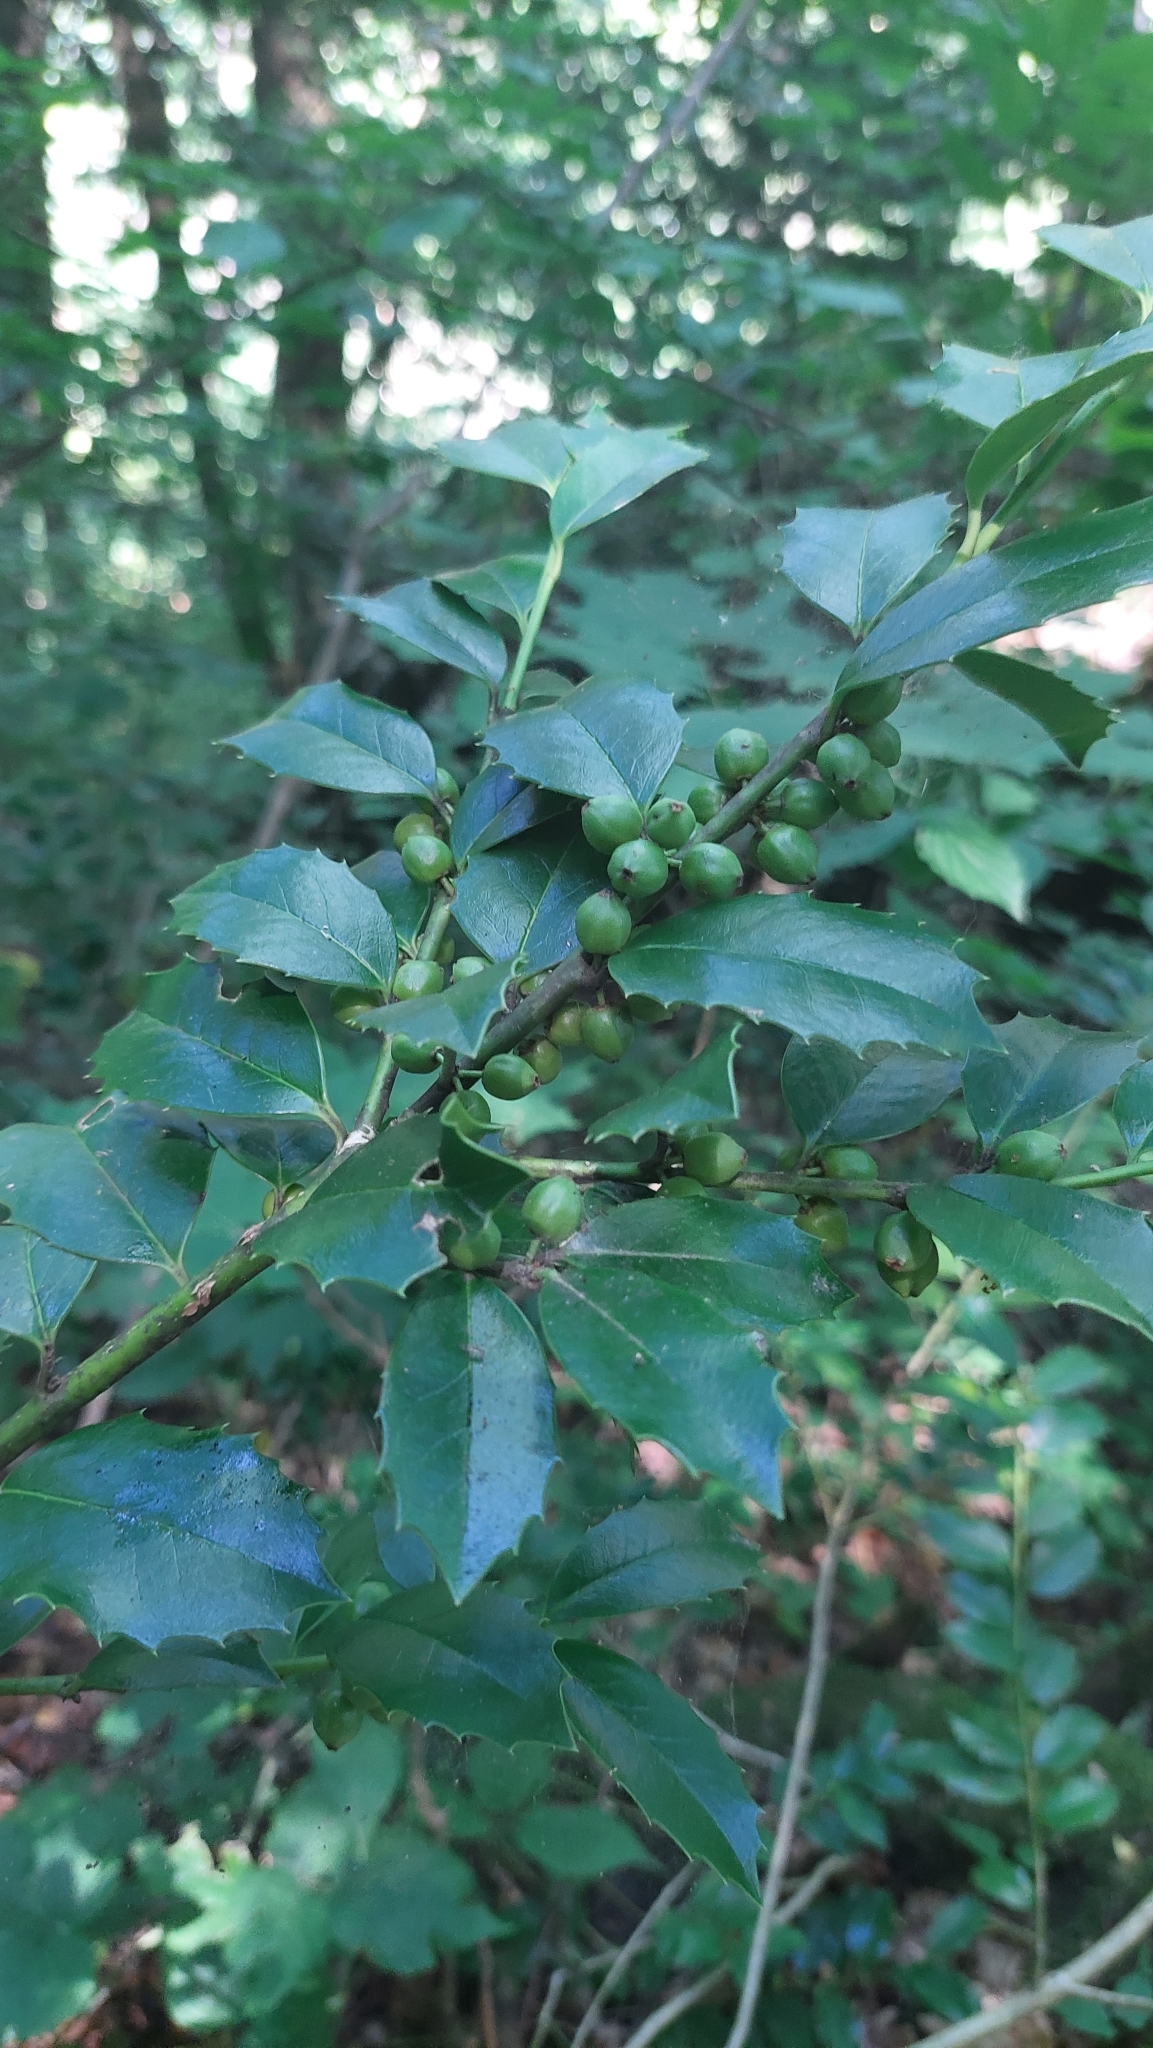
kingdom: Plantae
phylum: Tracheophyta
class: Magnoliopsida
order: Aquifoliales
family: Aquifoliaceae
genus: Ilex
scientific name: Ilex colchica
